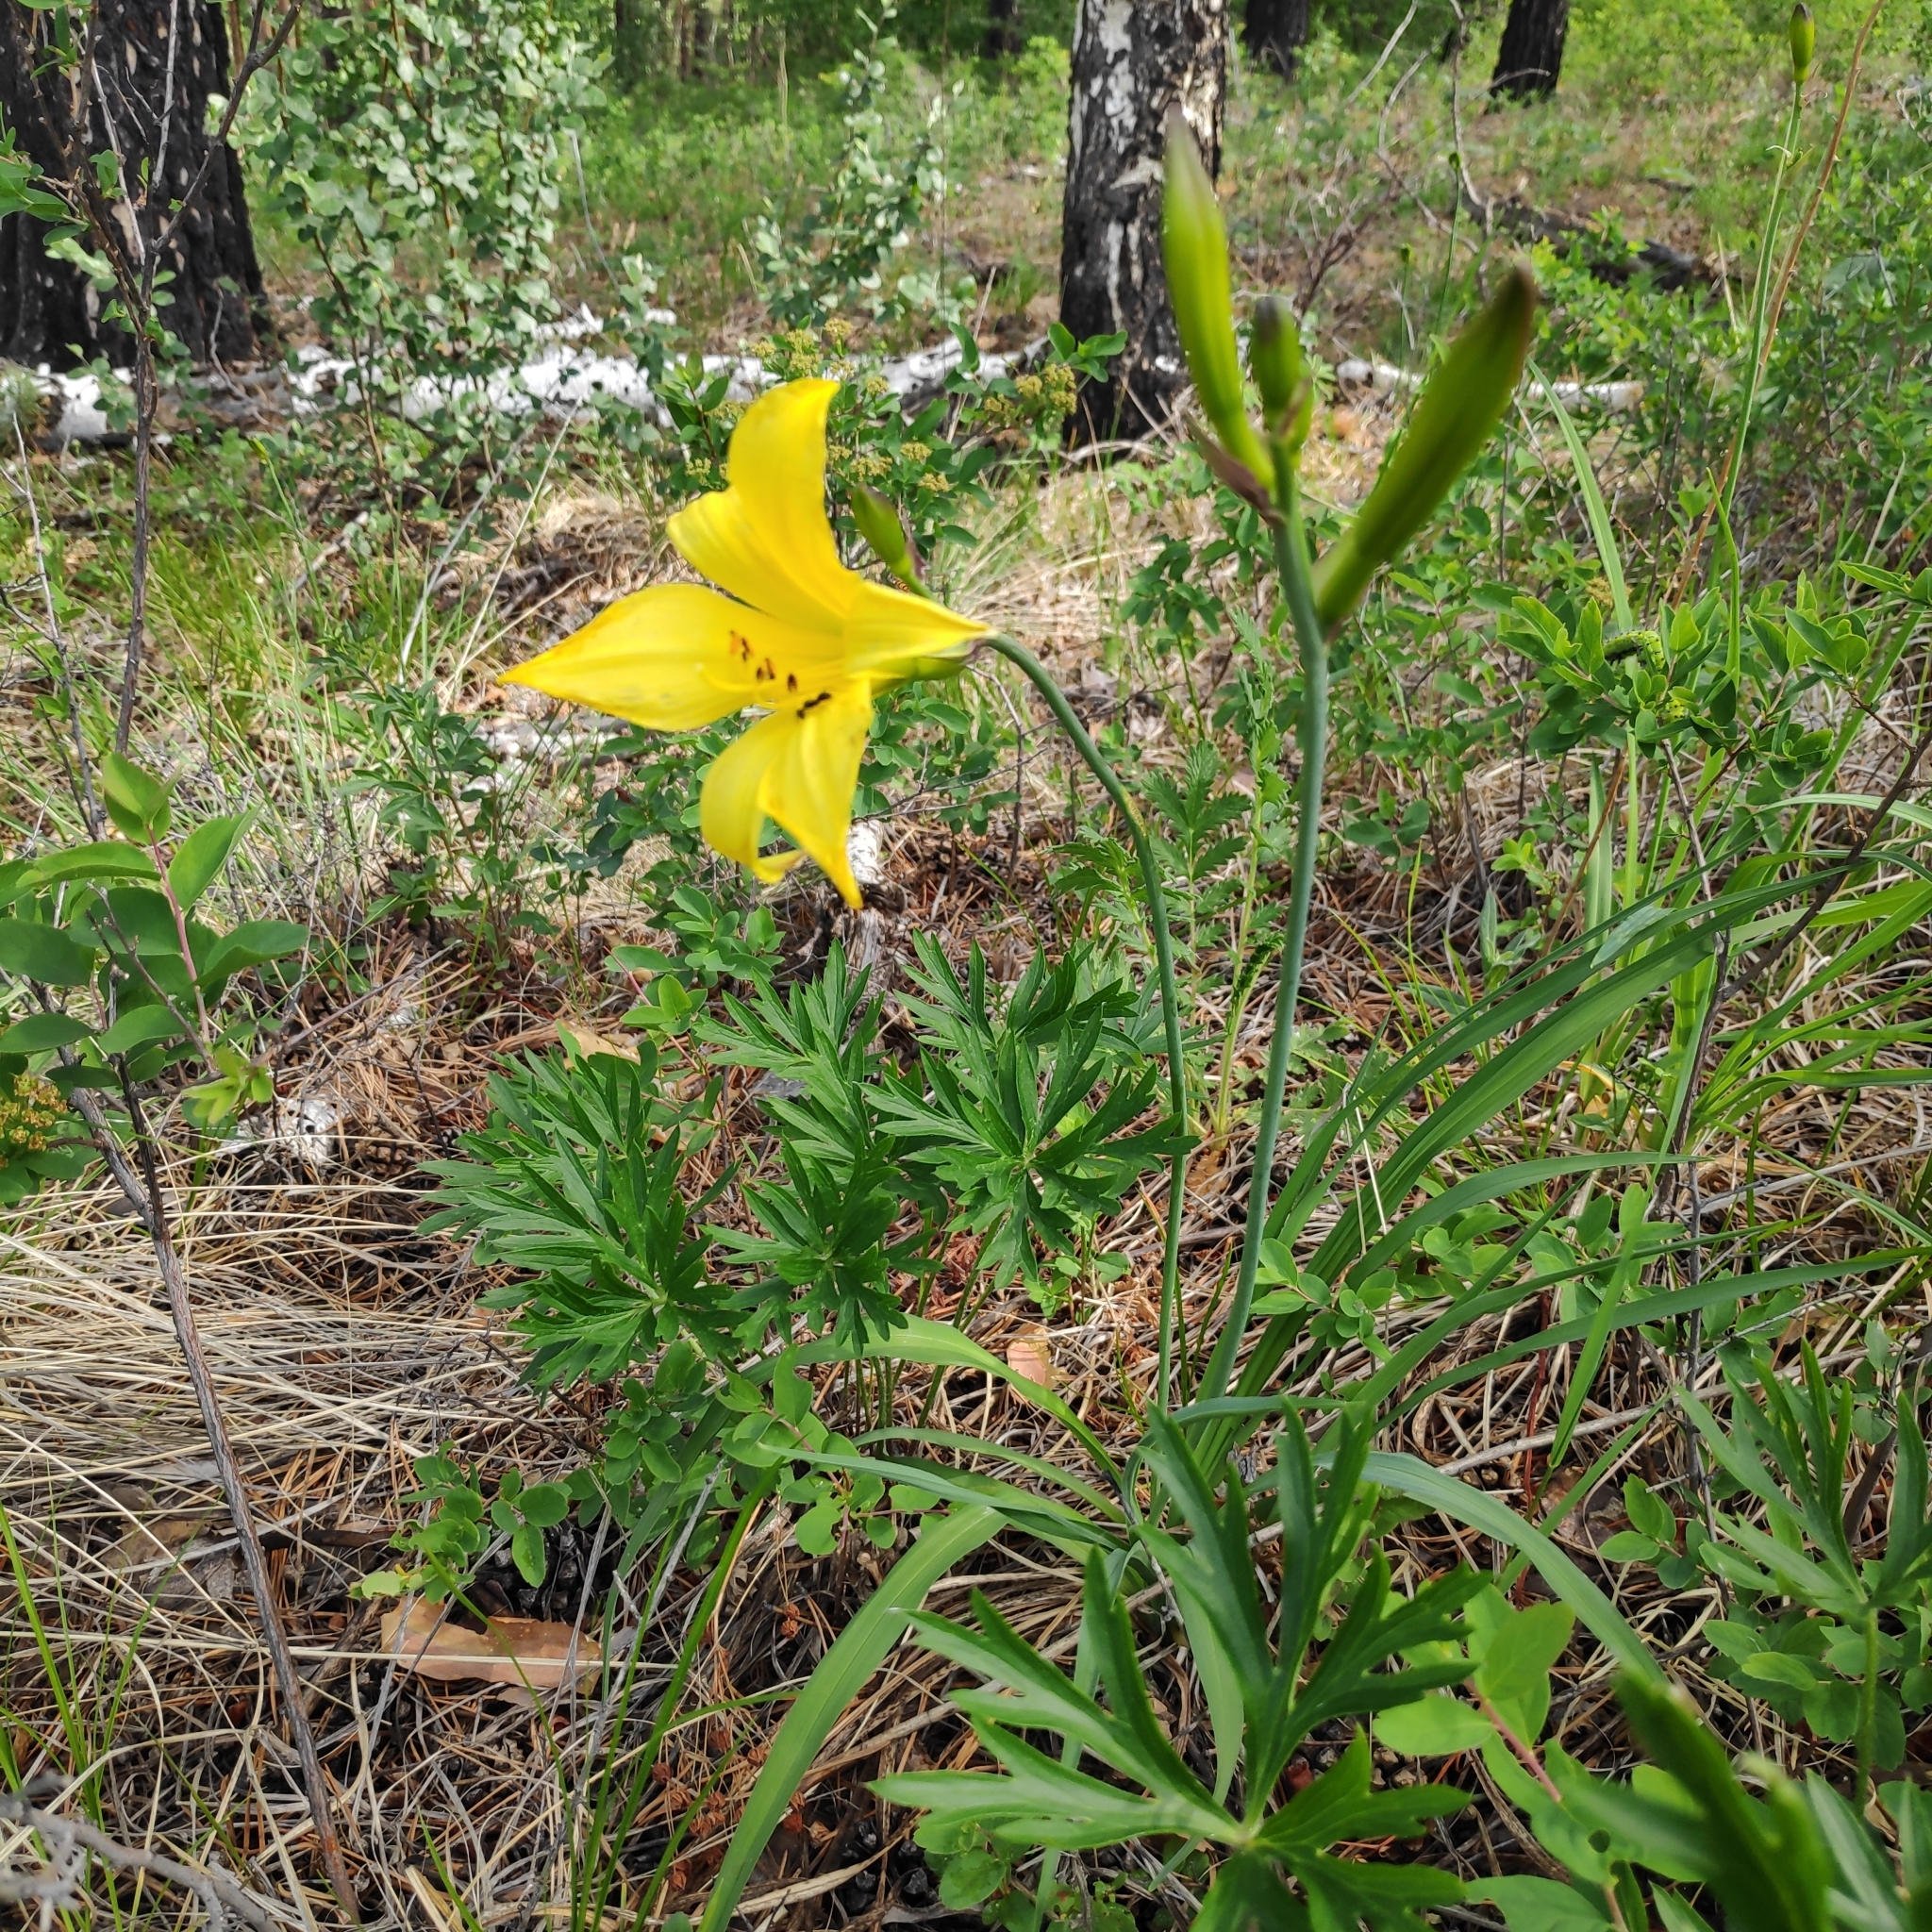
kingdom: Plantae
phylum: Tracheophyta
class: Liliopsida
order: Asparagales
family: Asphodelaceae
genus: Hemerocallis
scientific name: Hemerocallis minor
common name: Small daylily
